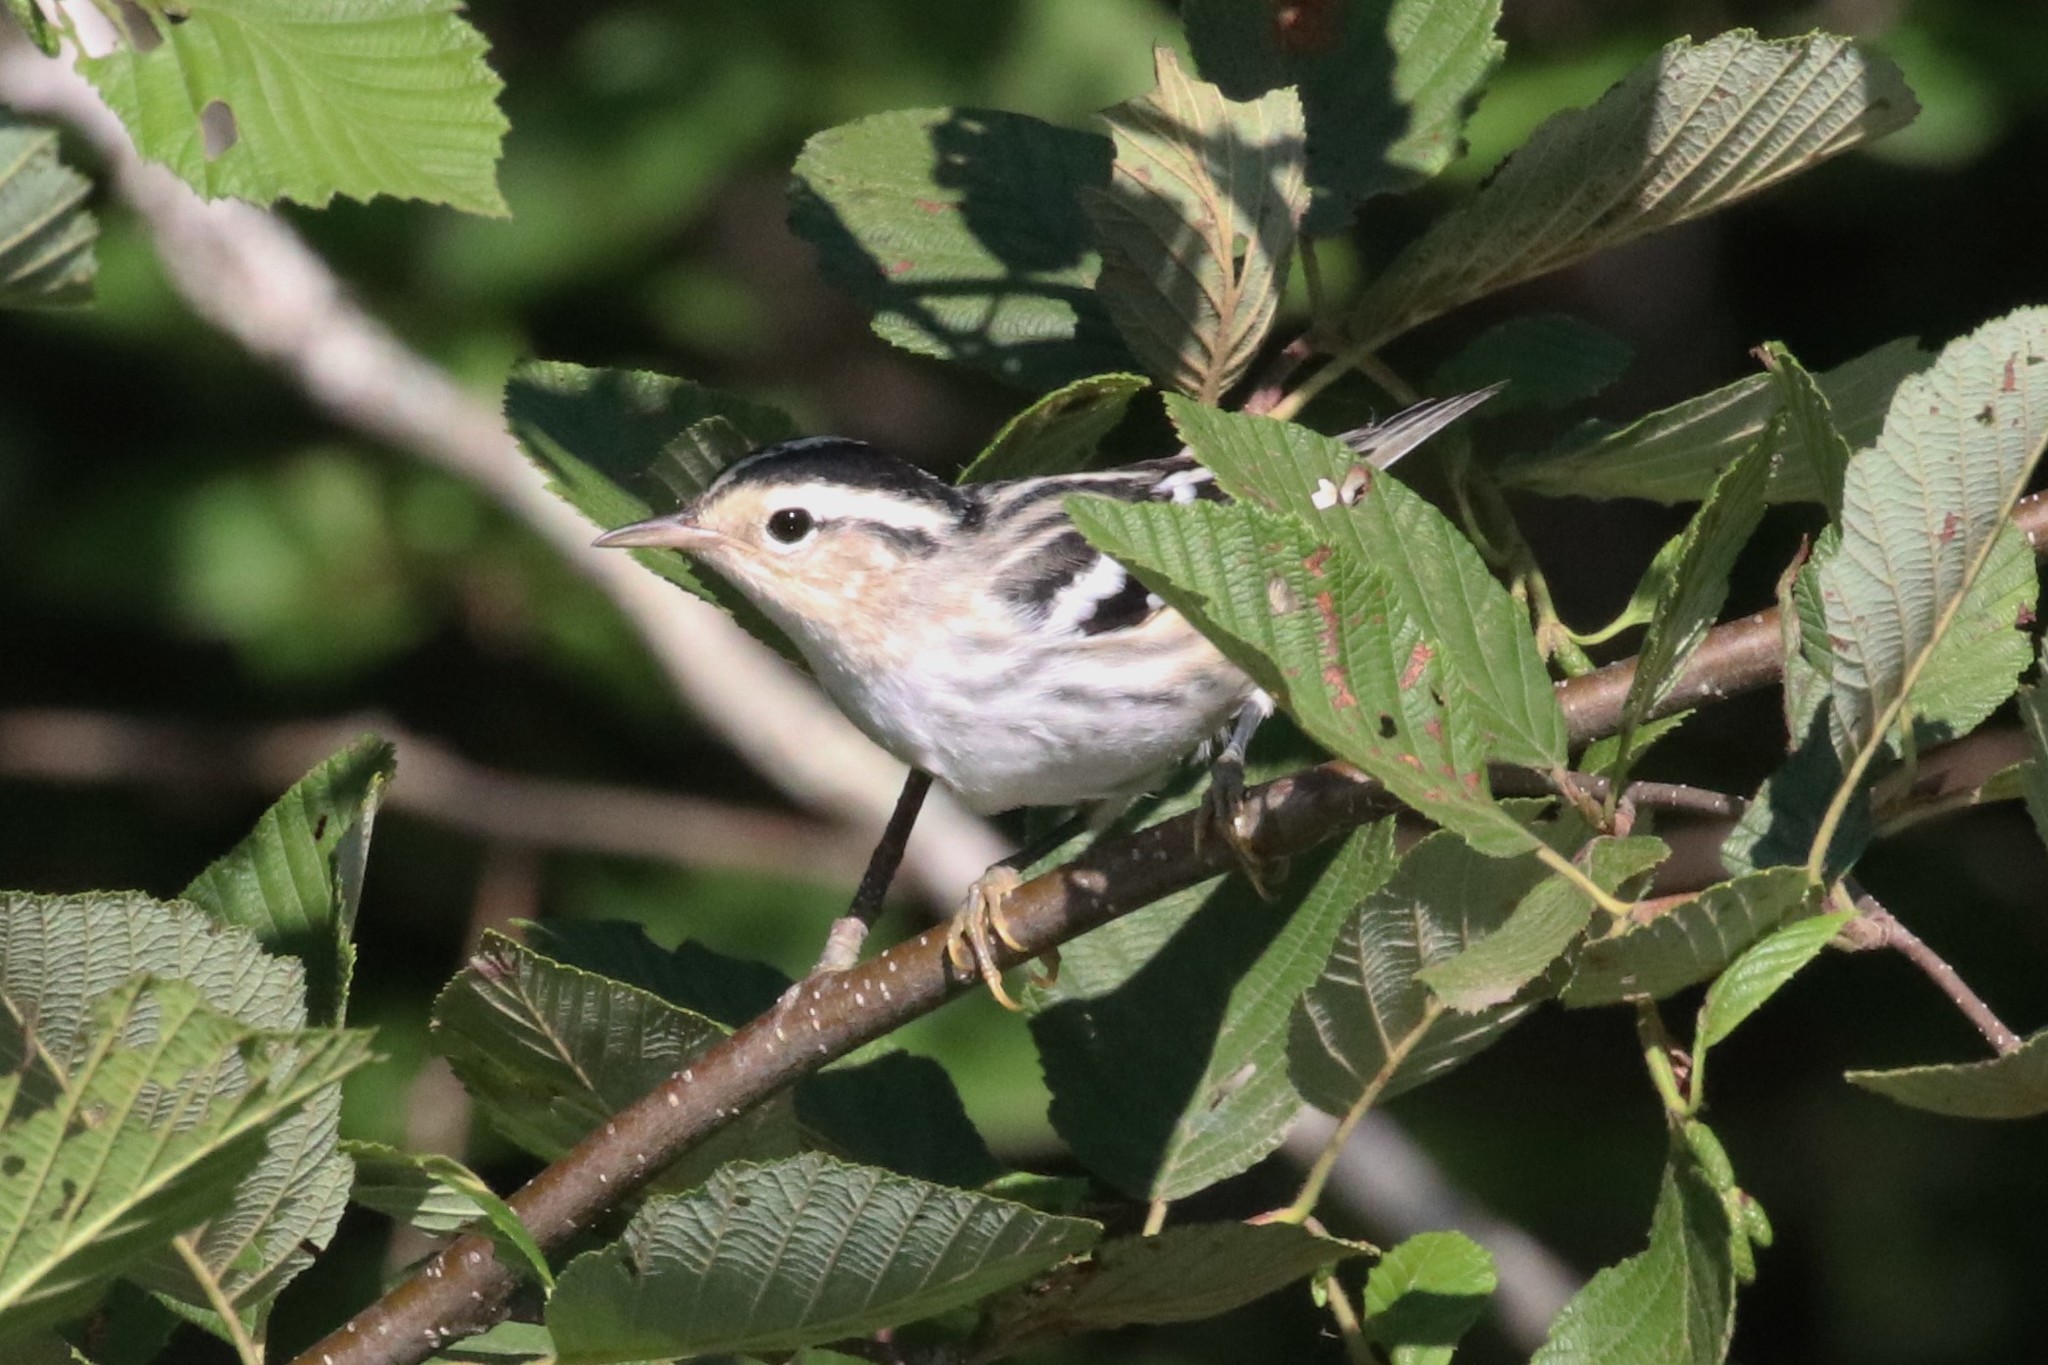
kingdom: Animalia
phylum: Chordata
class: Aves
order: Passeriformes
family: Parulidae
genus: Mniotilta
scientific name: Mniotilta varia
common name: Black-and-white warbler
